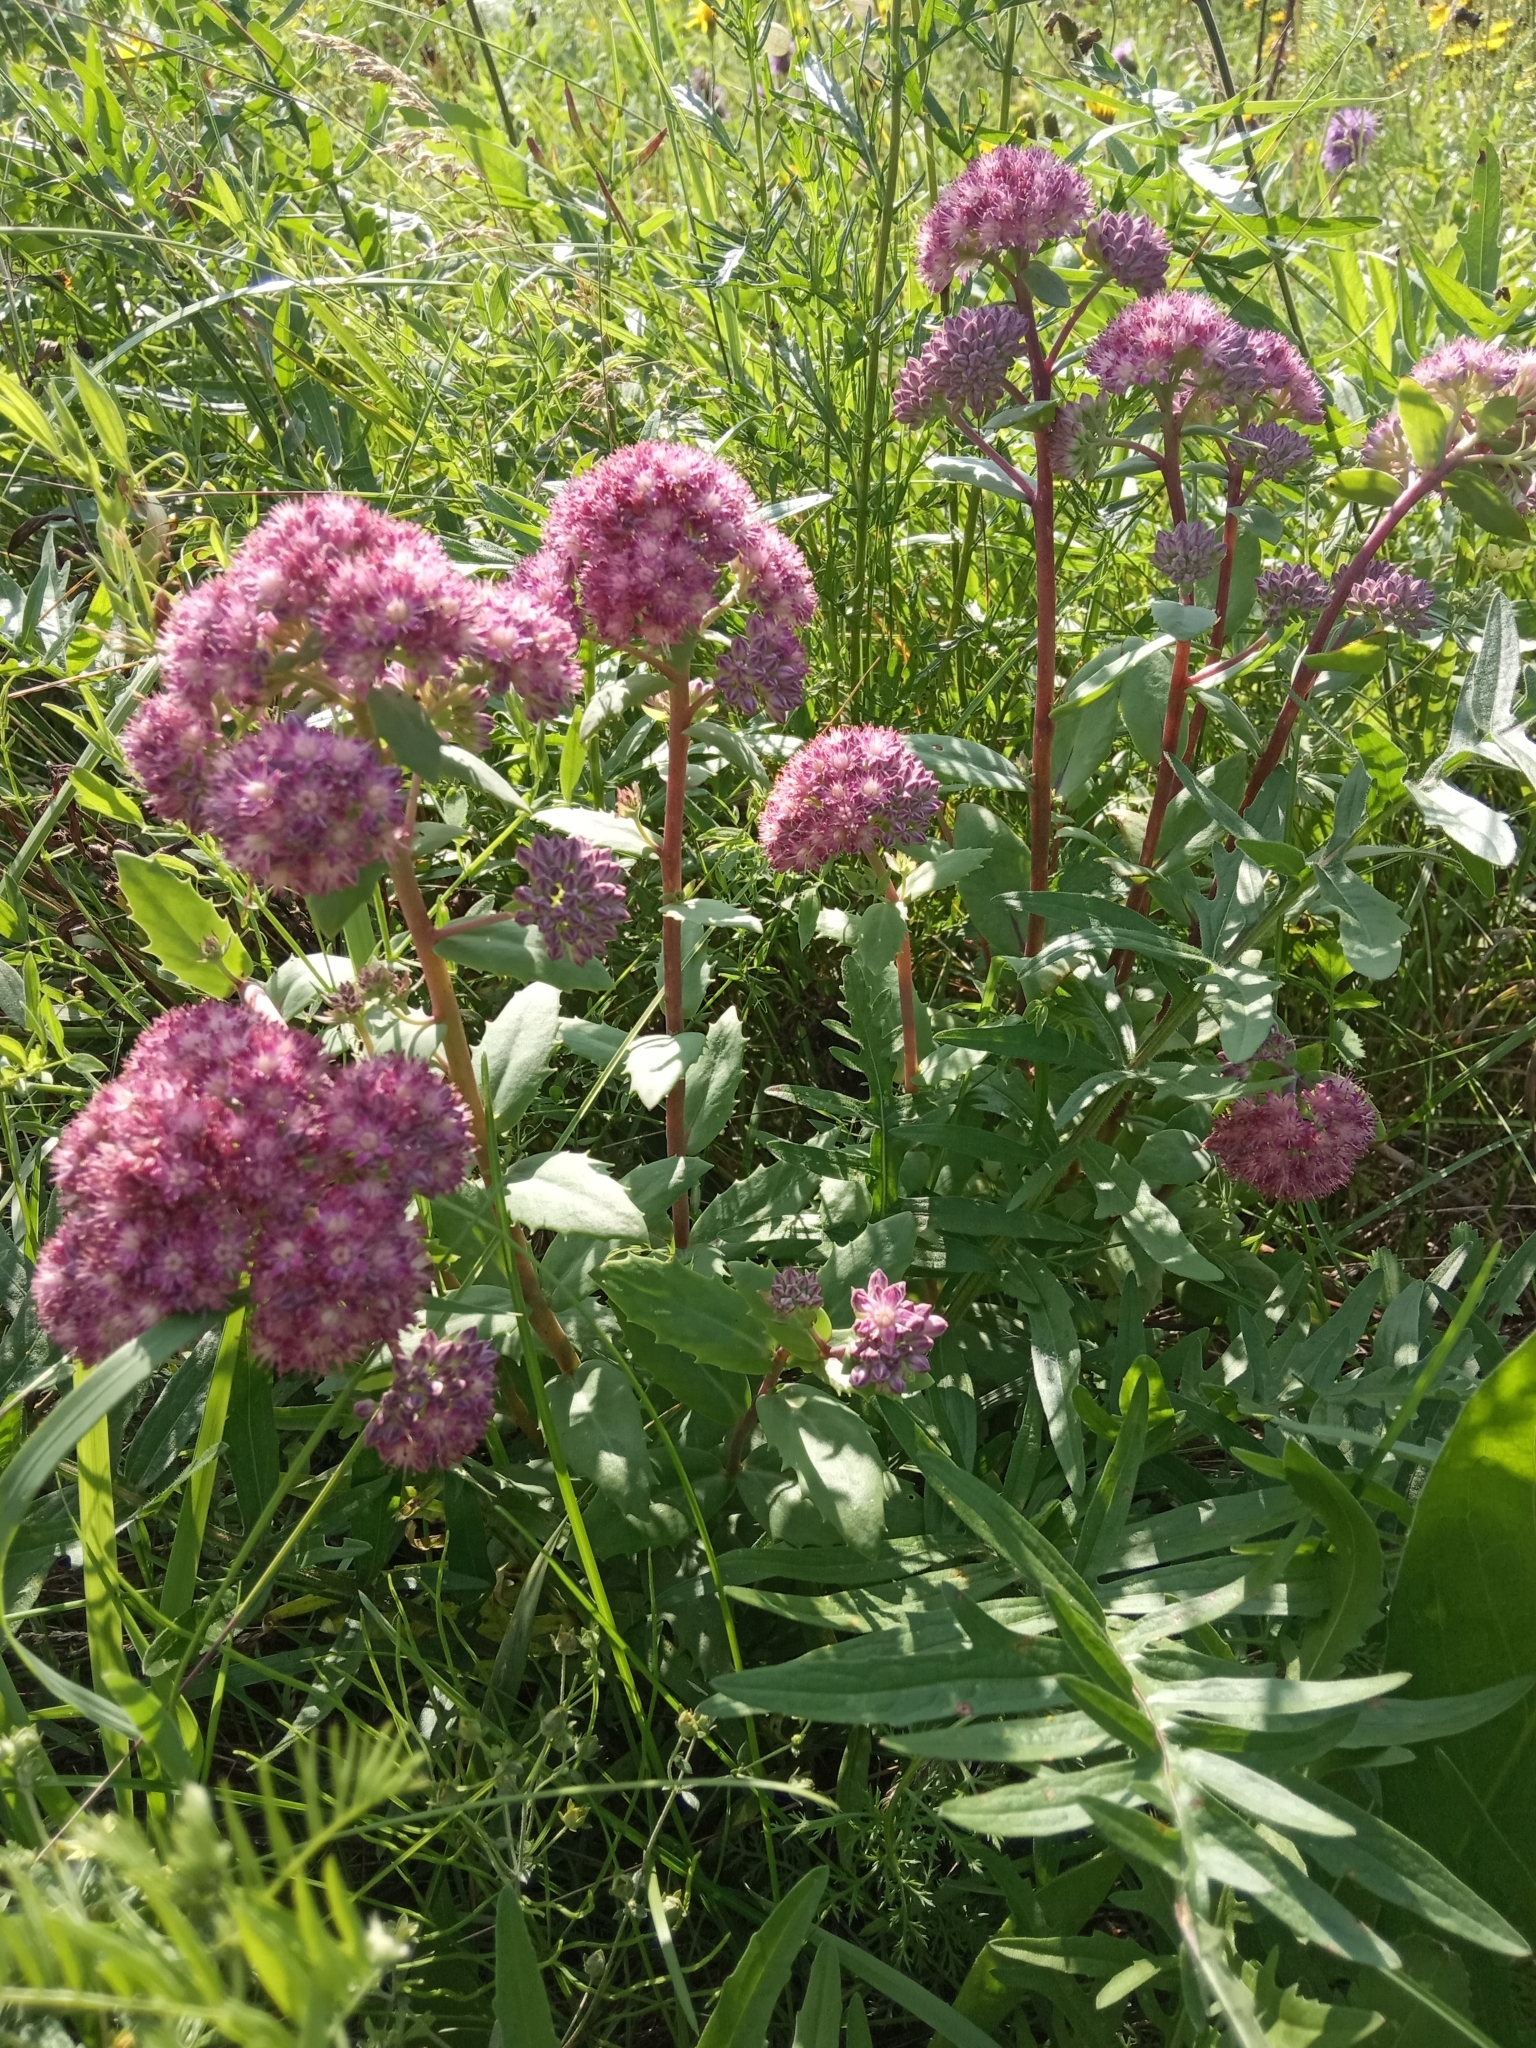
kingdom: Plantae
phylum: Tracheophyta
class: Magnoliopsida
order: Saxifragales
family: Crassulaceae
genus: Hylotelephium
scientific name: Hylotelephium telephium
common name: Live-forever
